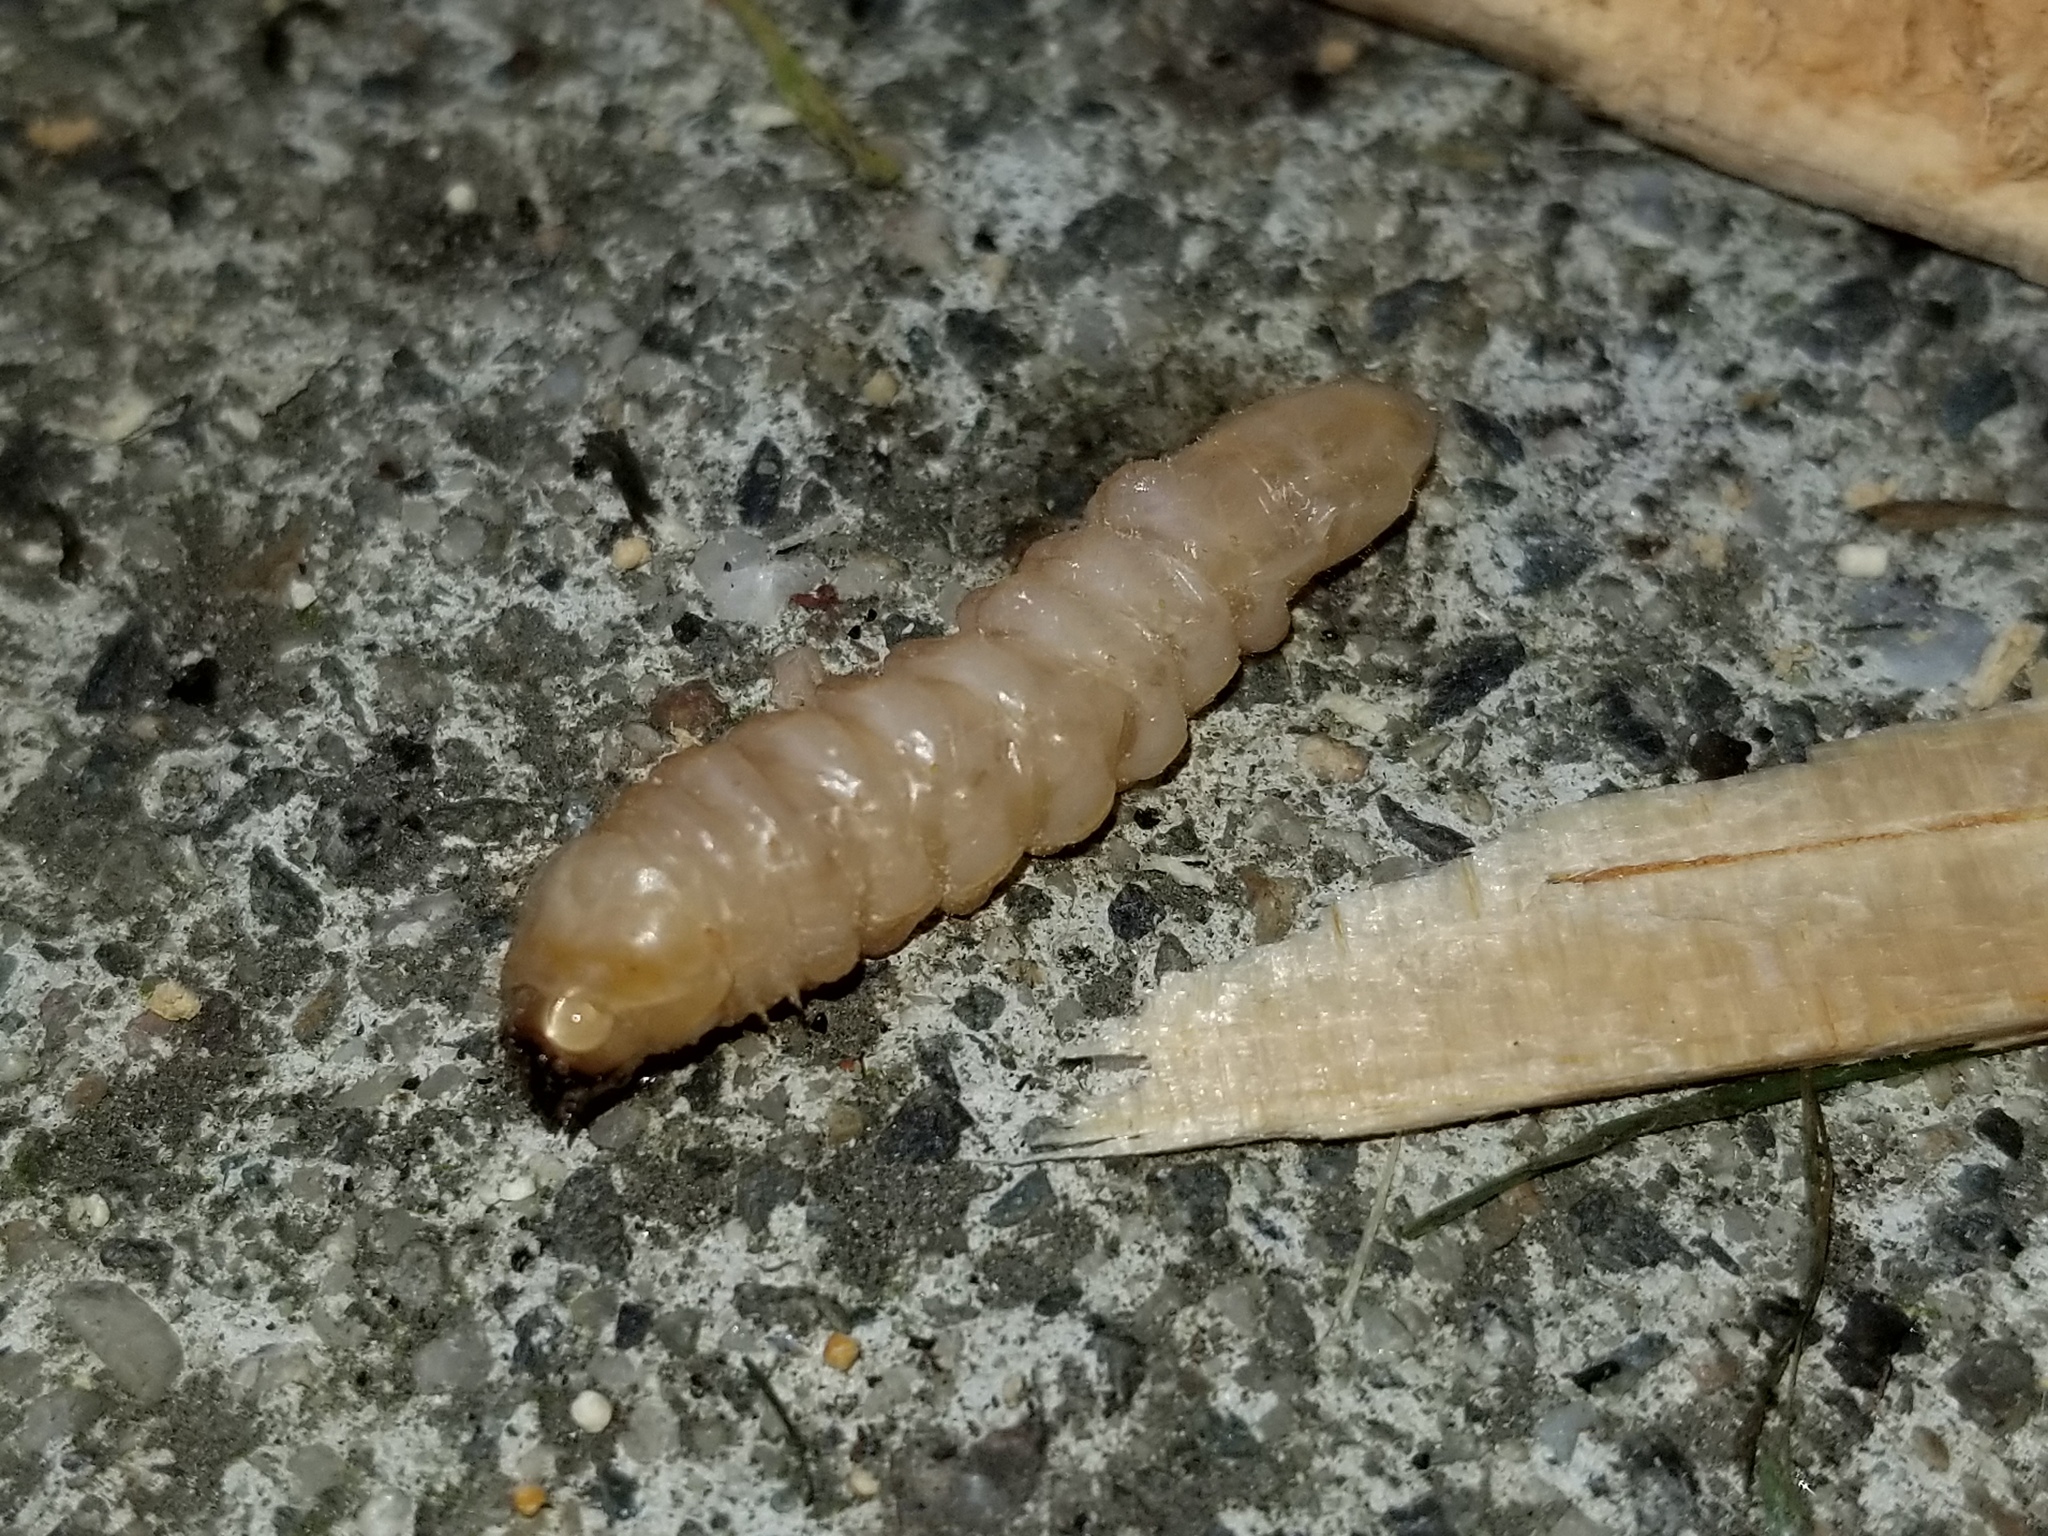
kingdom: Animalia
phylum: Arthropoda
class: Insecta
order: Coleoptera
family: Cerambycidae
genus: Prionoplus
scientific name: Prionoplus reticularis
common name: Huhu beetle
